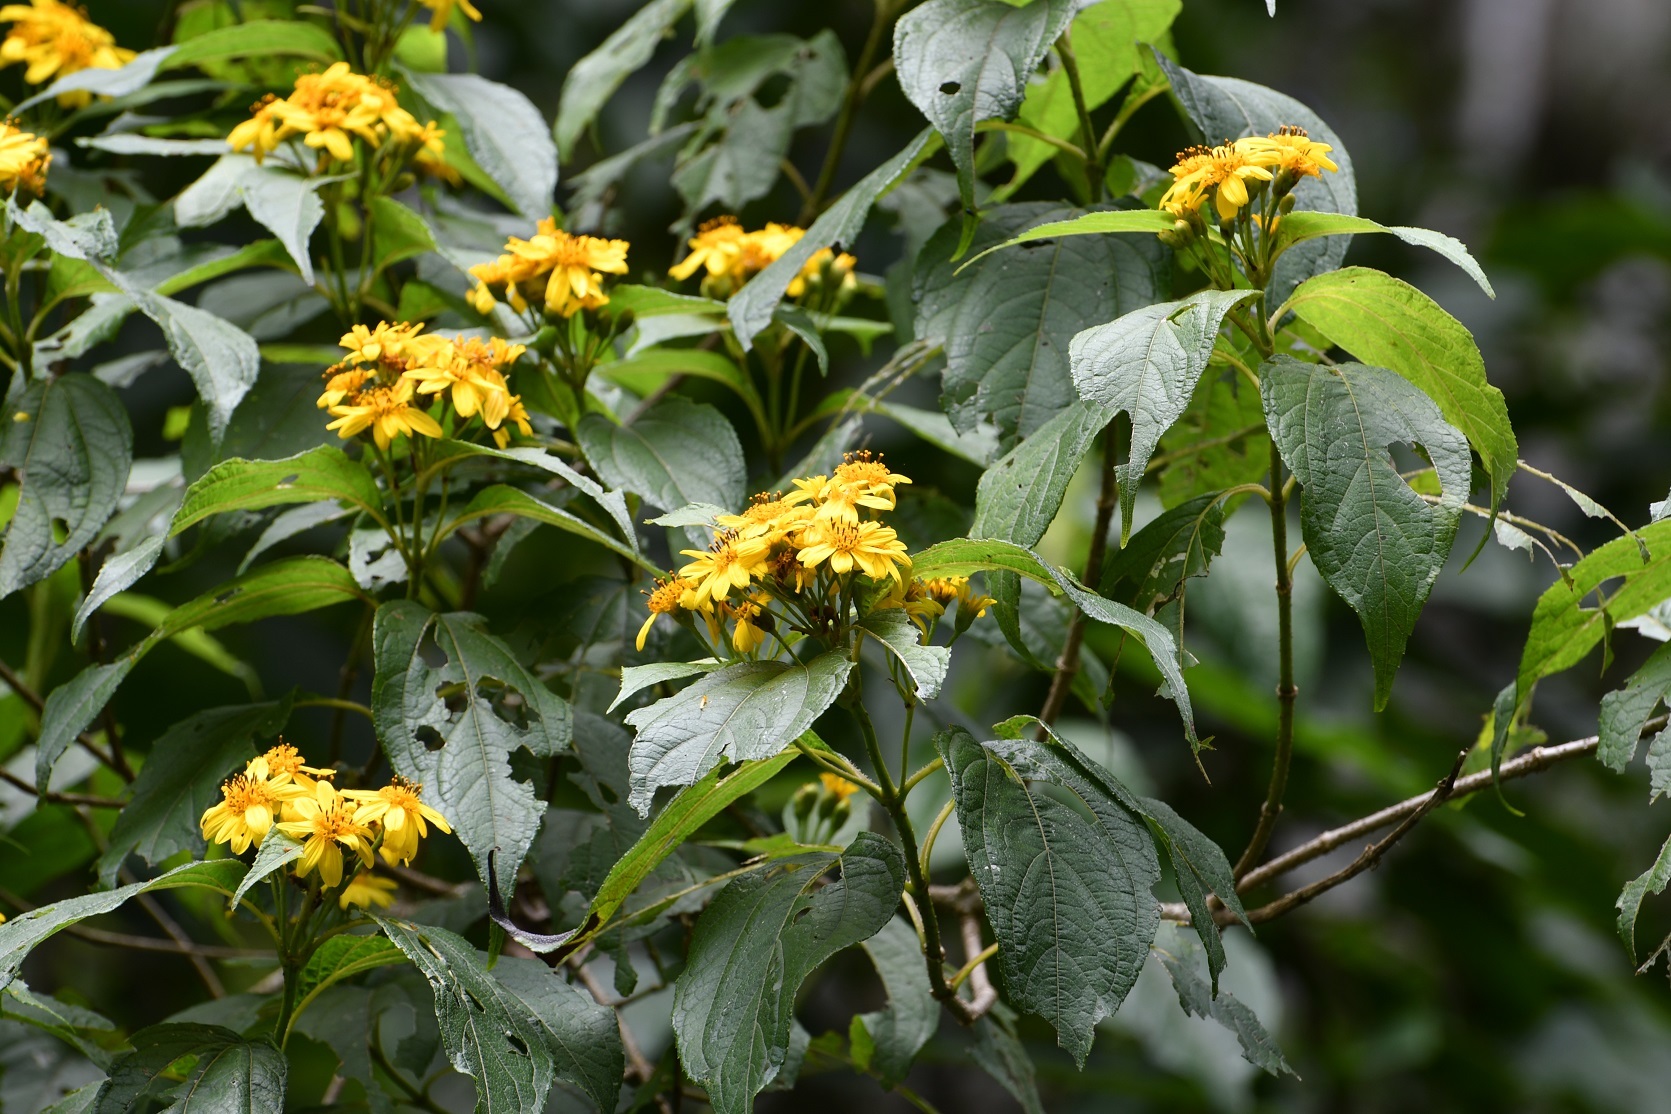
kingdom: Plantae
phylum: Tracheophyta
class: Magnoliopsida
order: Asterales
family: Asteraceae
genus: Perymenium
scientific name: Perymenium grande
